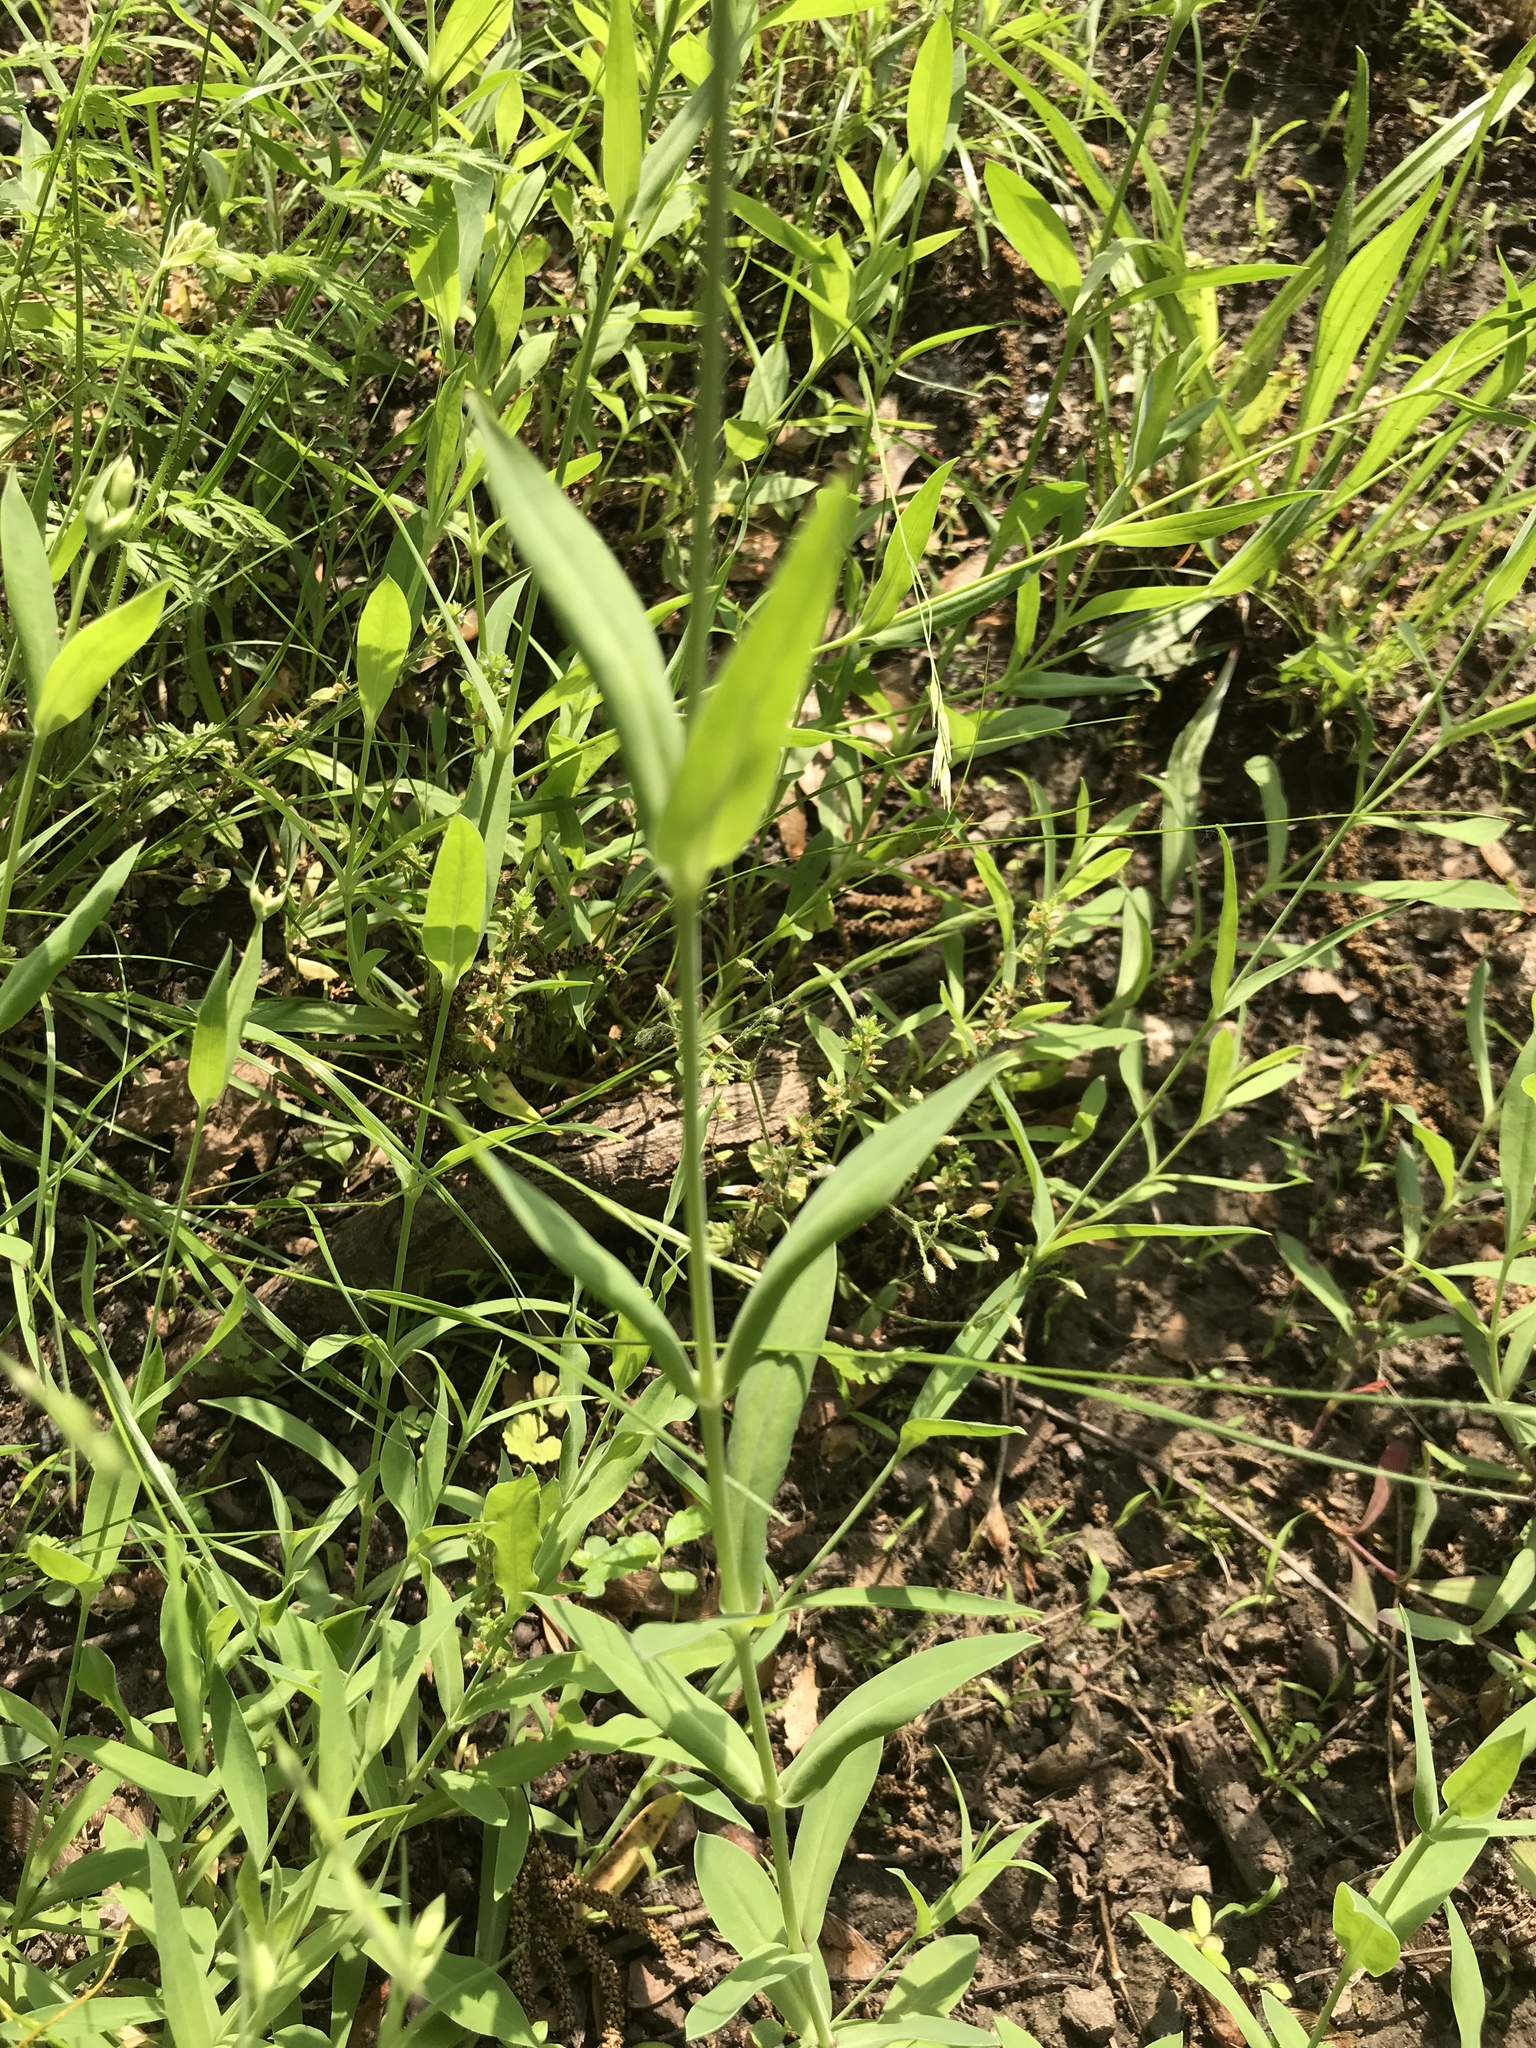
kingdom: Plantae
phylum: Tracheophyta
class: Magnoliopsida
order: Caryophyllales
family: Caryophyllaceae
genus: Silene
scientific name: Silene vulgaris
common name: Bladder campion
